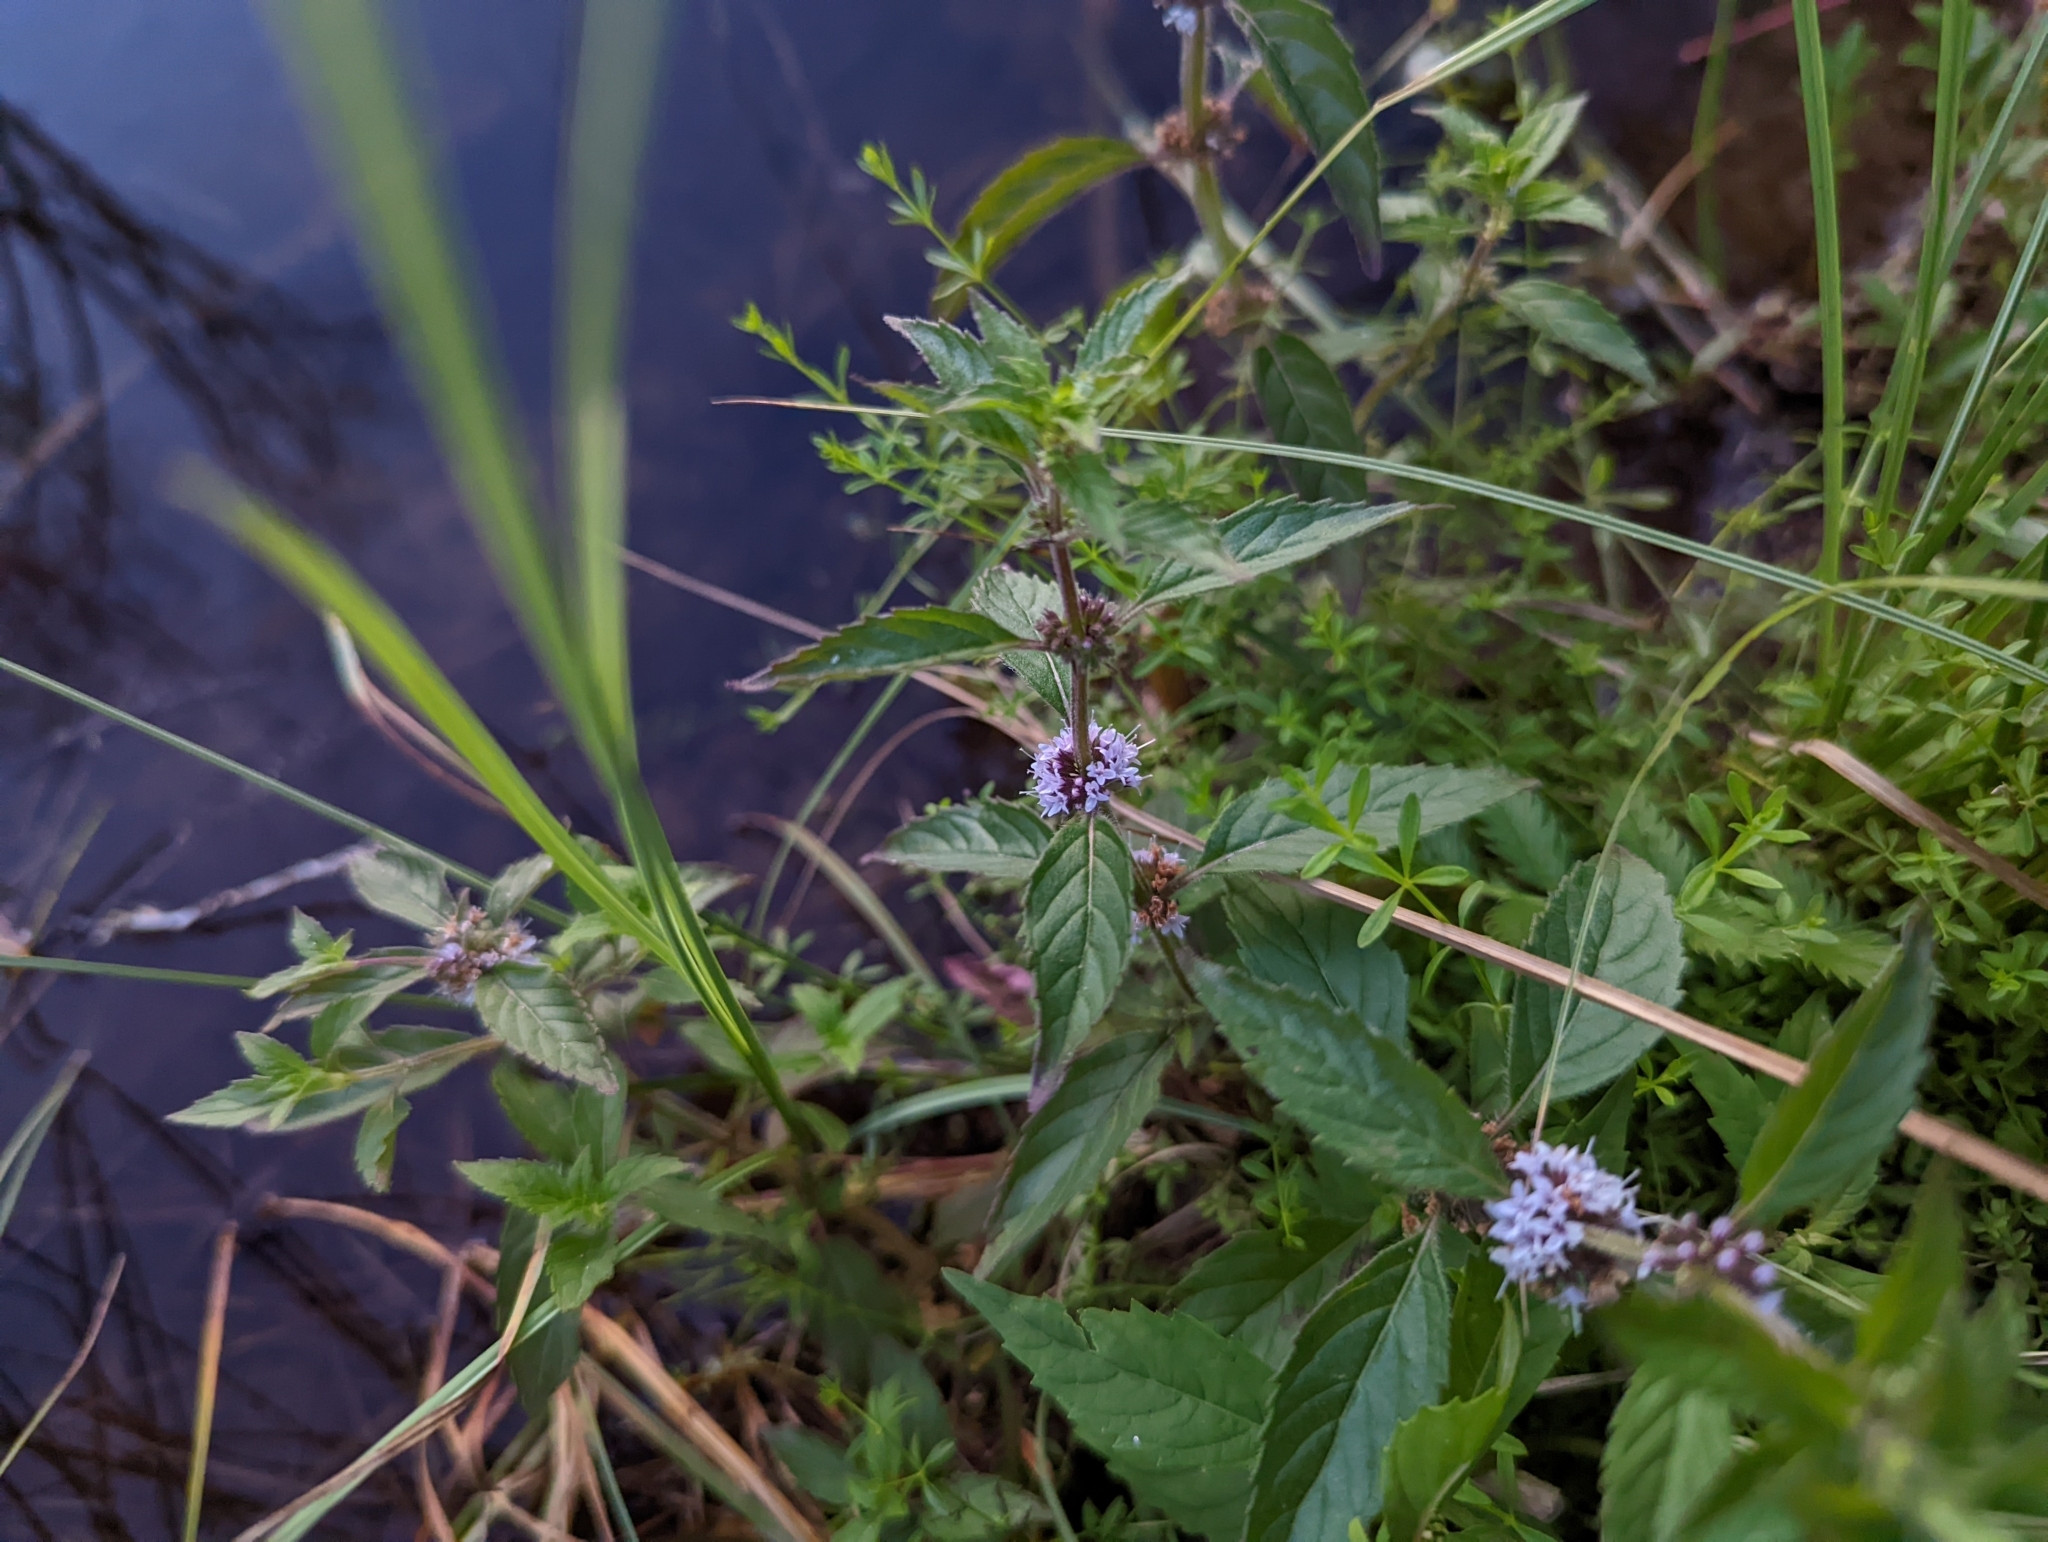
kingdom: Plantae
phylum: Tracheophyta
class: Magnoliopsida
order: Lamiales
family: Lamiaceae
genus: Mentha
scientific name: Mentha canadensis
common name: American corn mint
